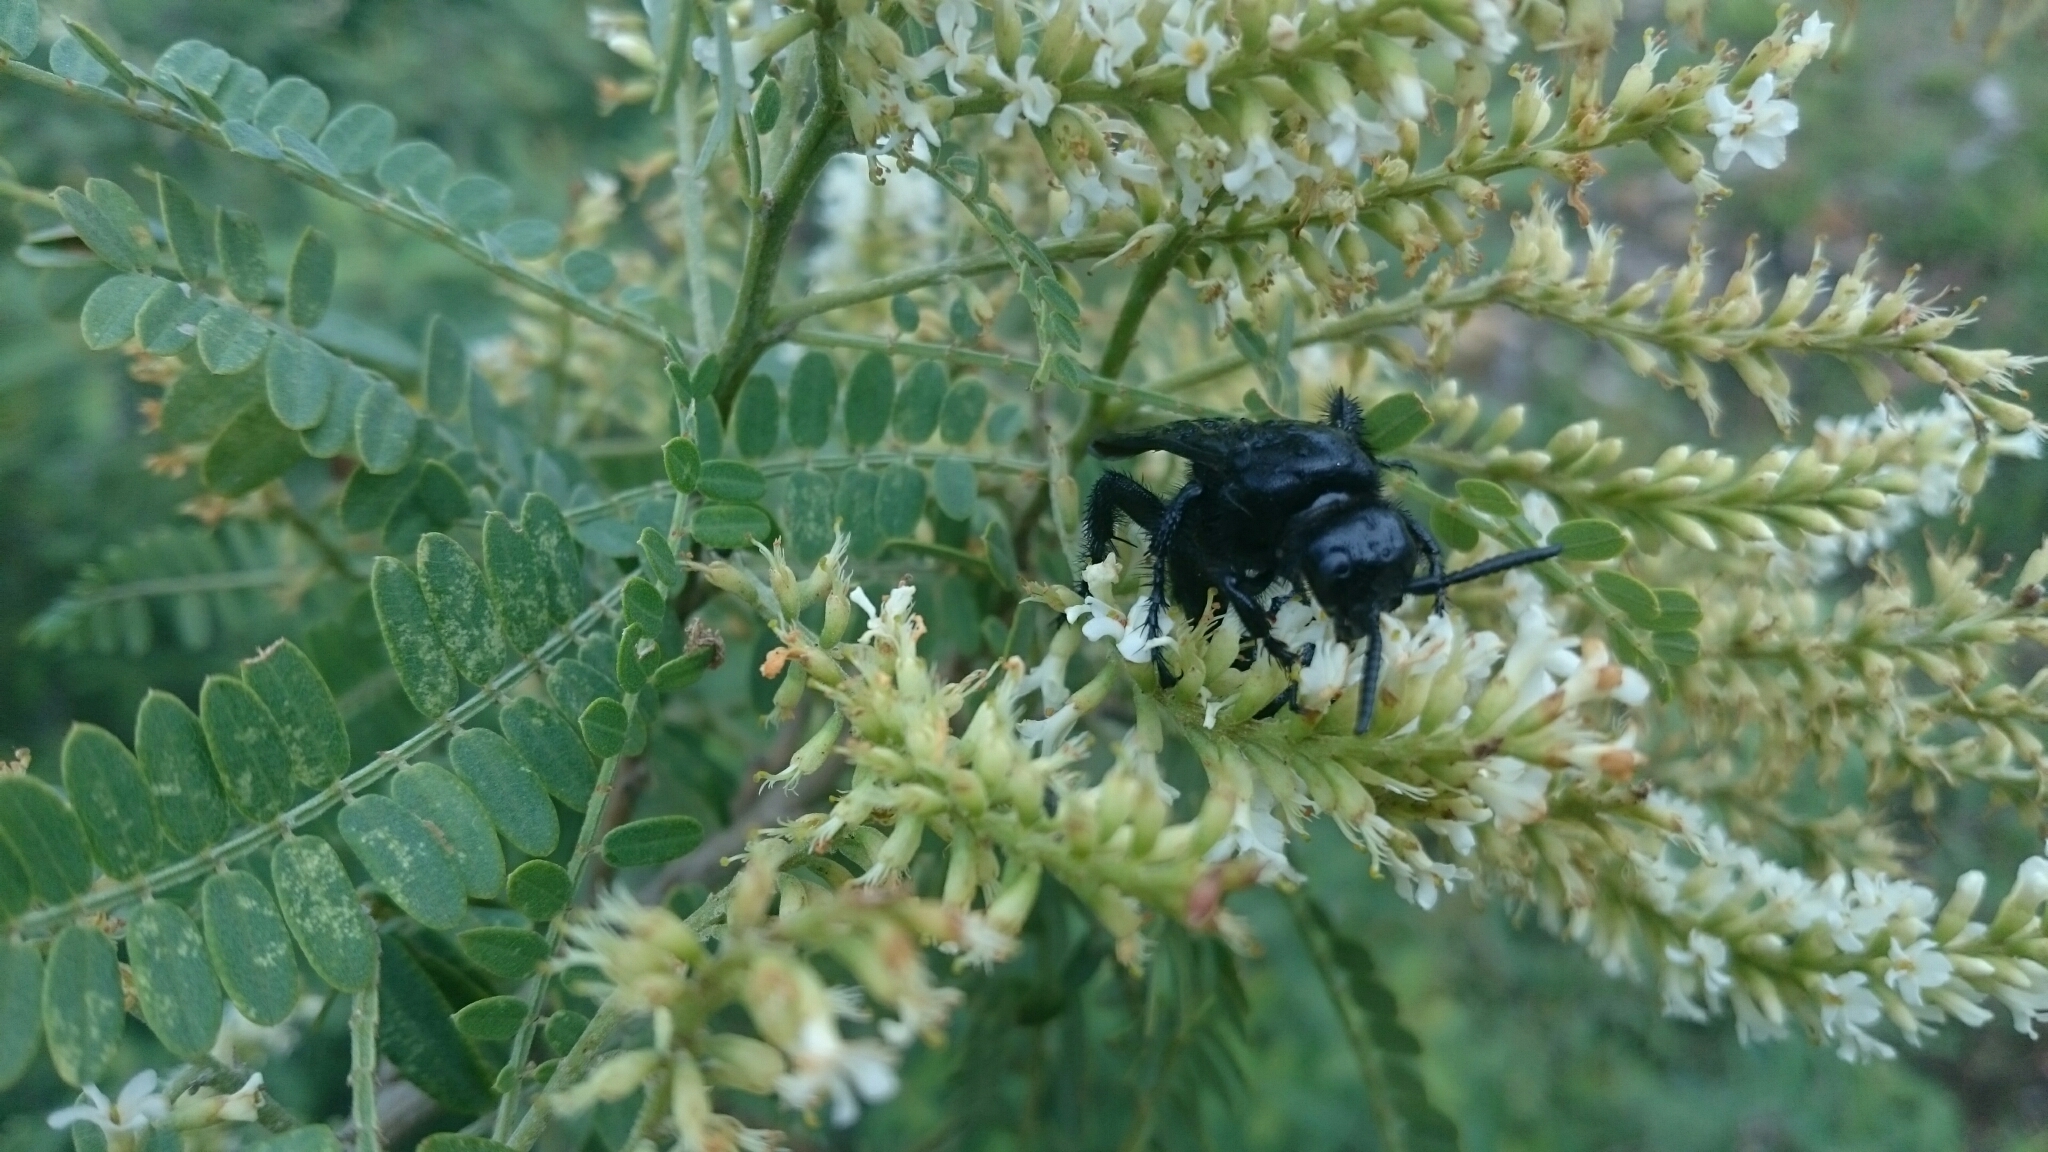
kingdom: Animalia
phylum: Arthropoda
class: Insecta
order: Hymenoptera
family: Scoliidae
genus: Scolia
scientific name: Scolia mexicana
